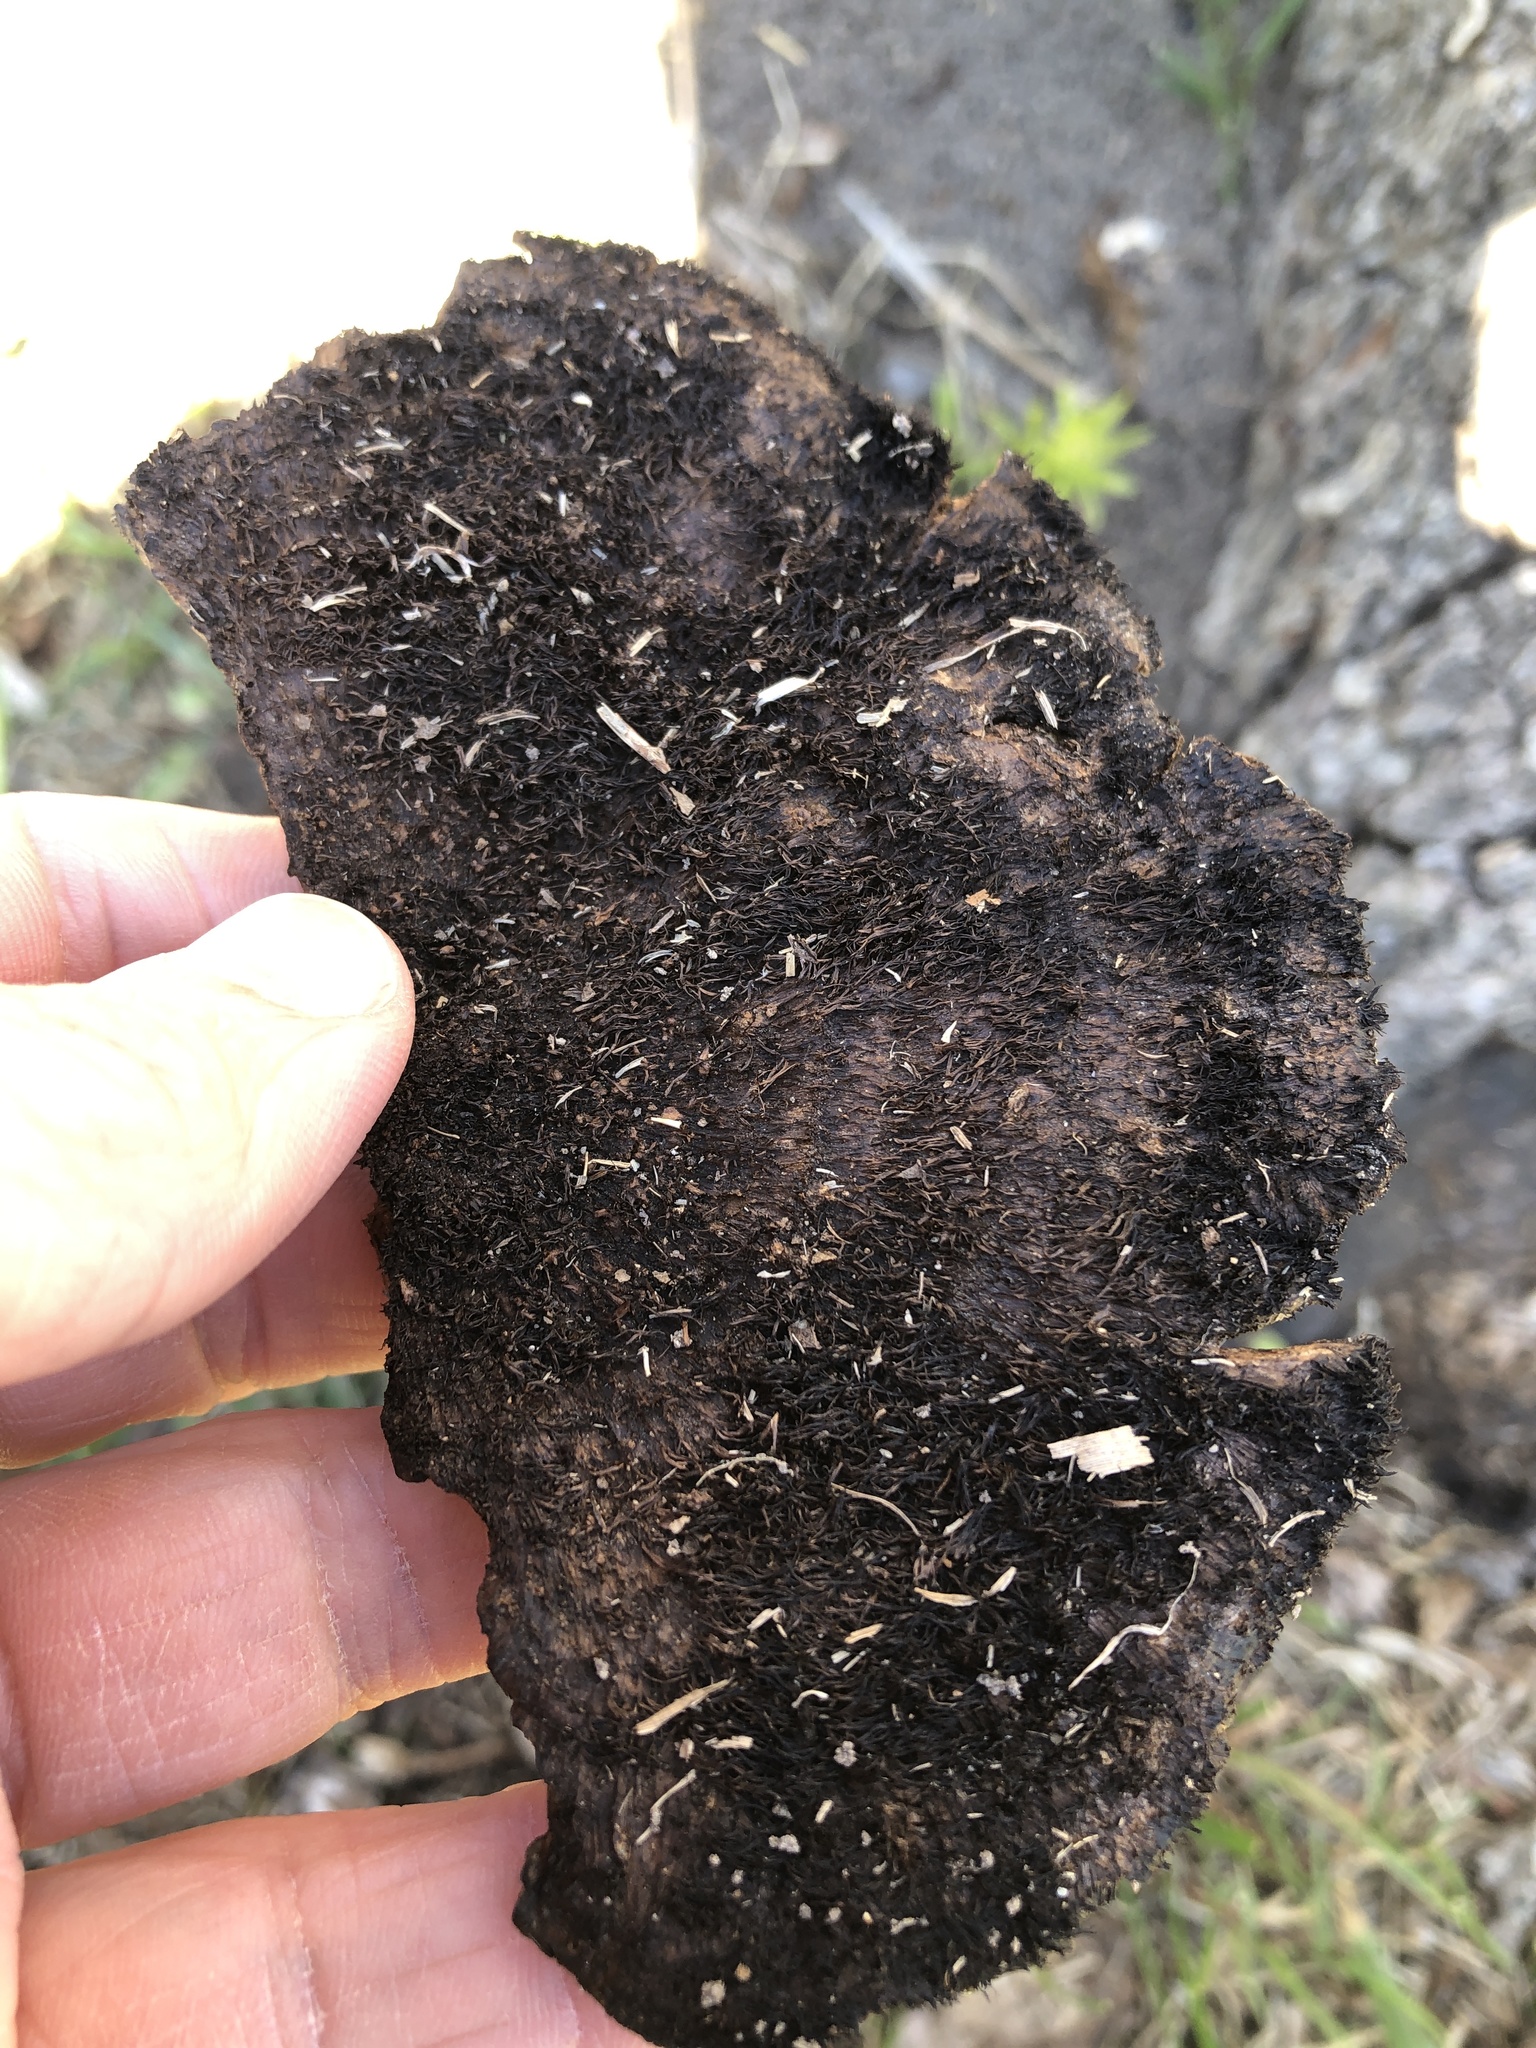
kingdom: Fungi
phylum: Basidiomycota
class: Agaricomycetes
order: Polyporales
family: Cerrenaceae
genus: Cerrena
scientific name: Cerrena hydnoides
